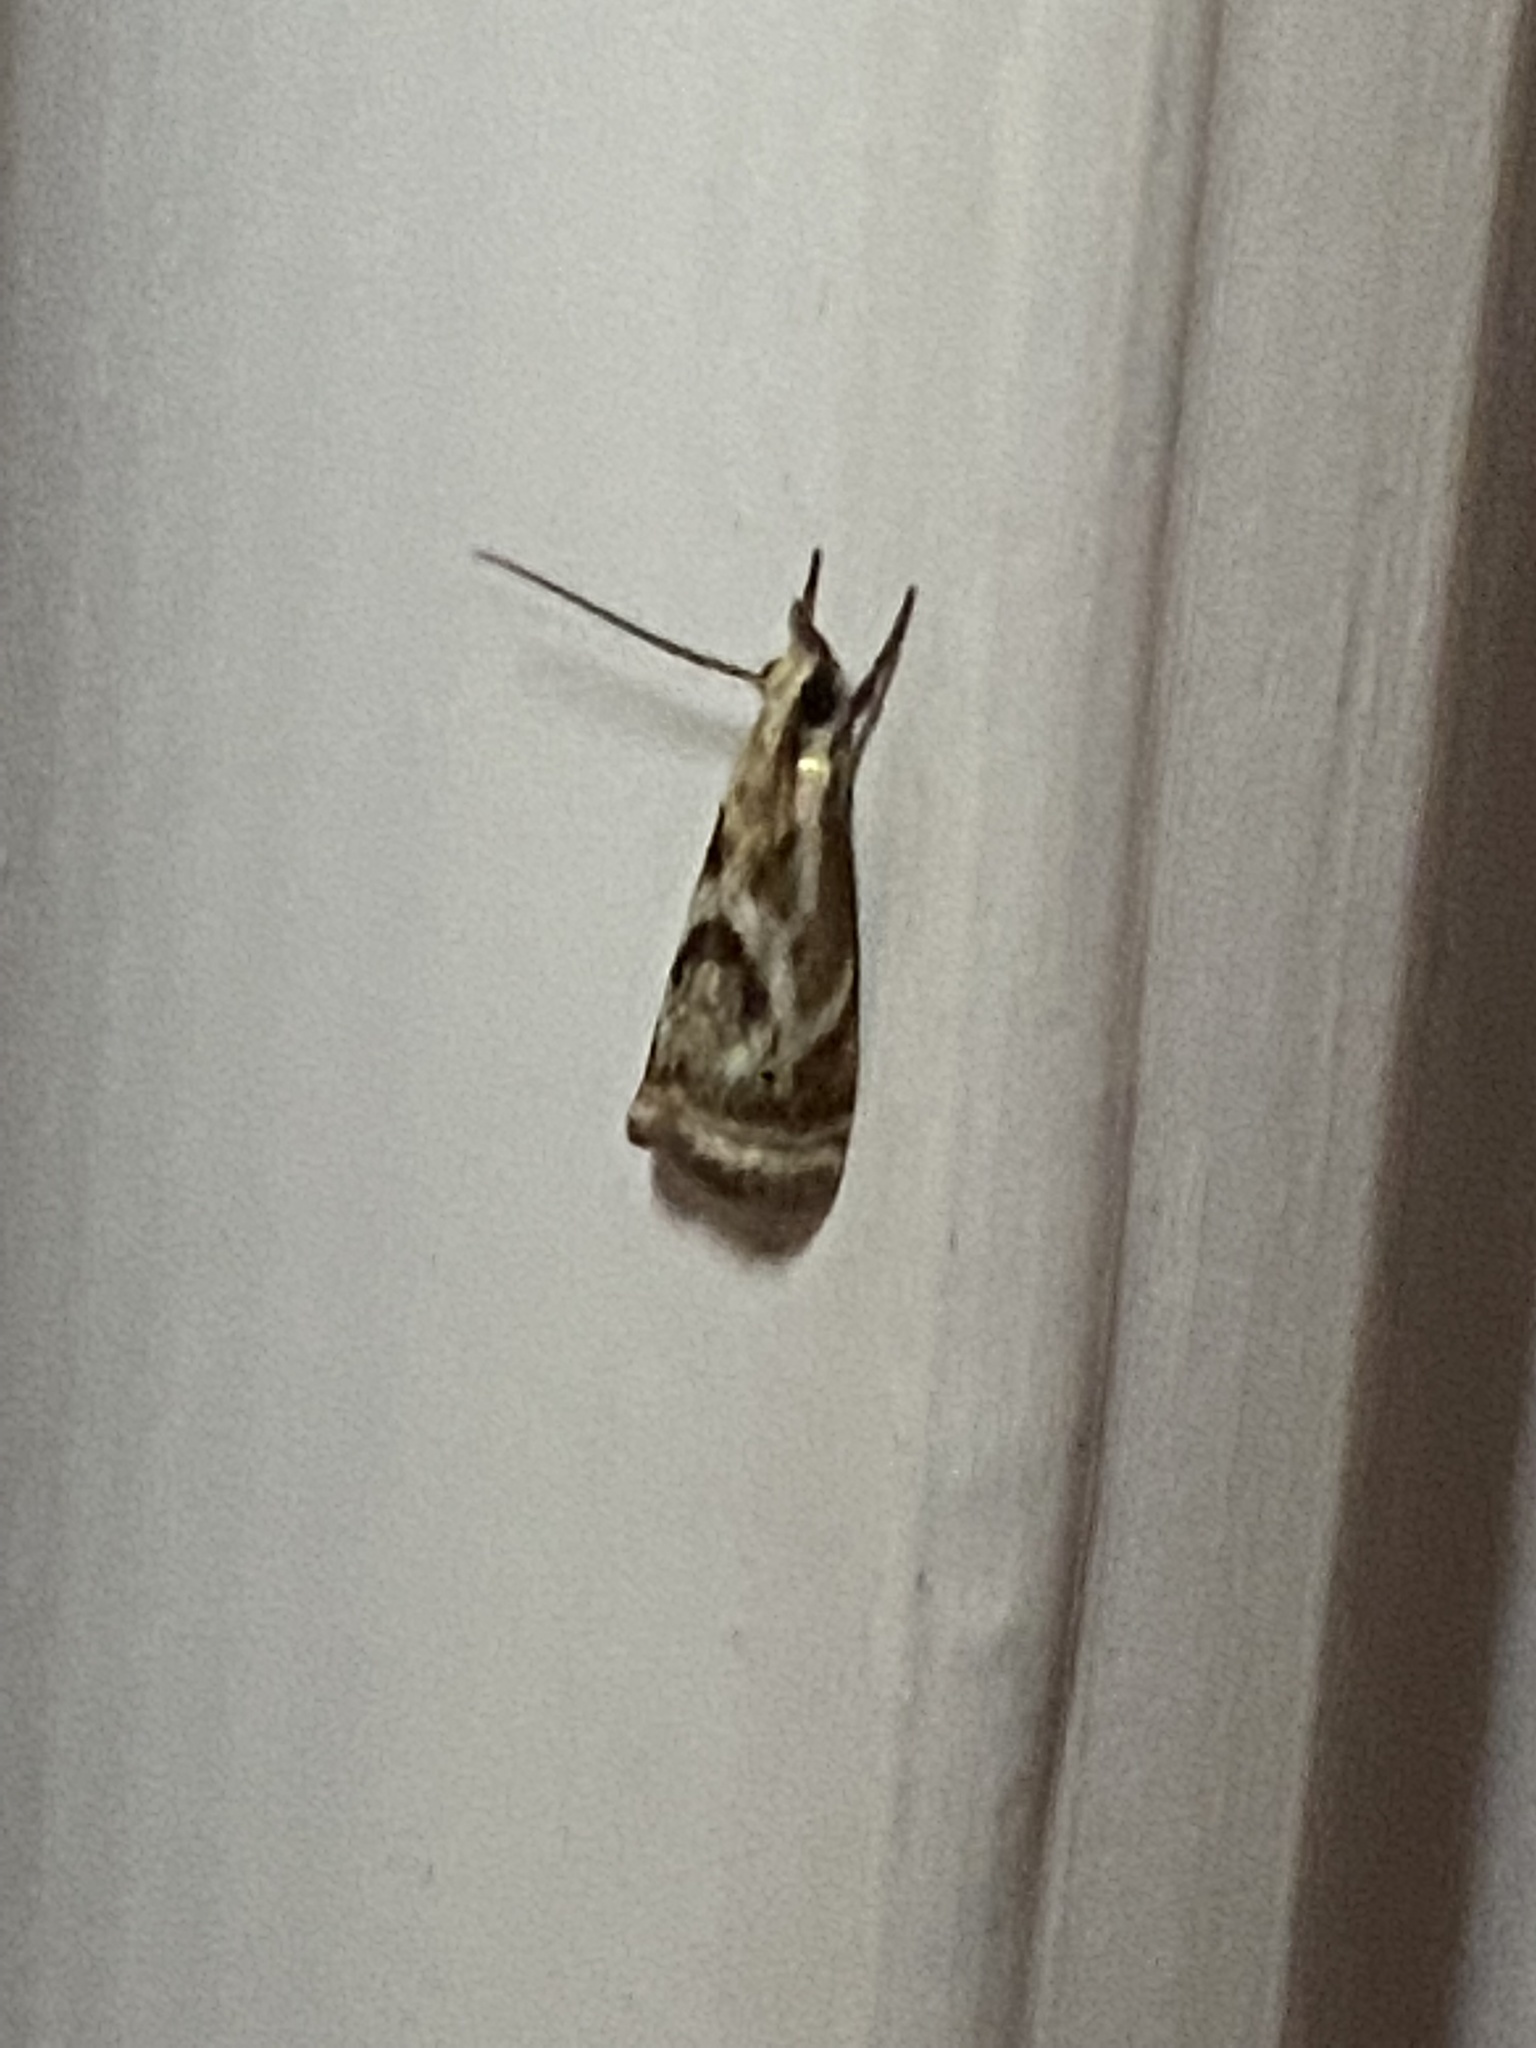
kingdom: Animalia
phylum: Arthropoda
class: Insecta
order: Lepidoptera
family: Crambidae
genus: Microcrambus
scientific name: Microcrambus elegans
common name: Elegant grass-veneer
